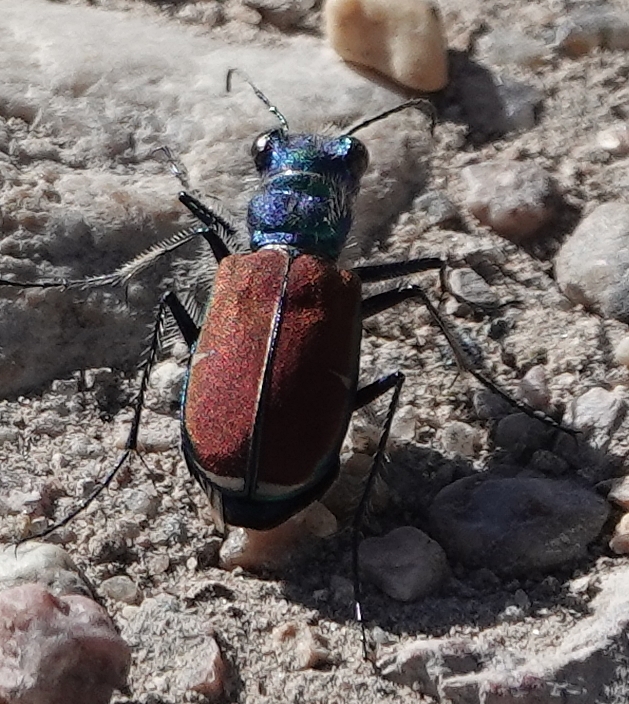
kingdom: Animalia
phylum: Arthropoda
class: Insecta
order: Coleoptera
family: Carabidae
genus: Cicindela
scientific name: Cicindela splendida
